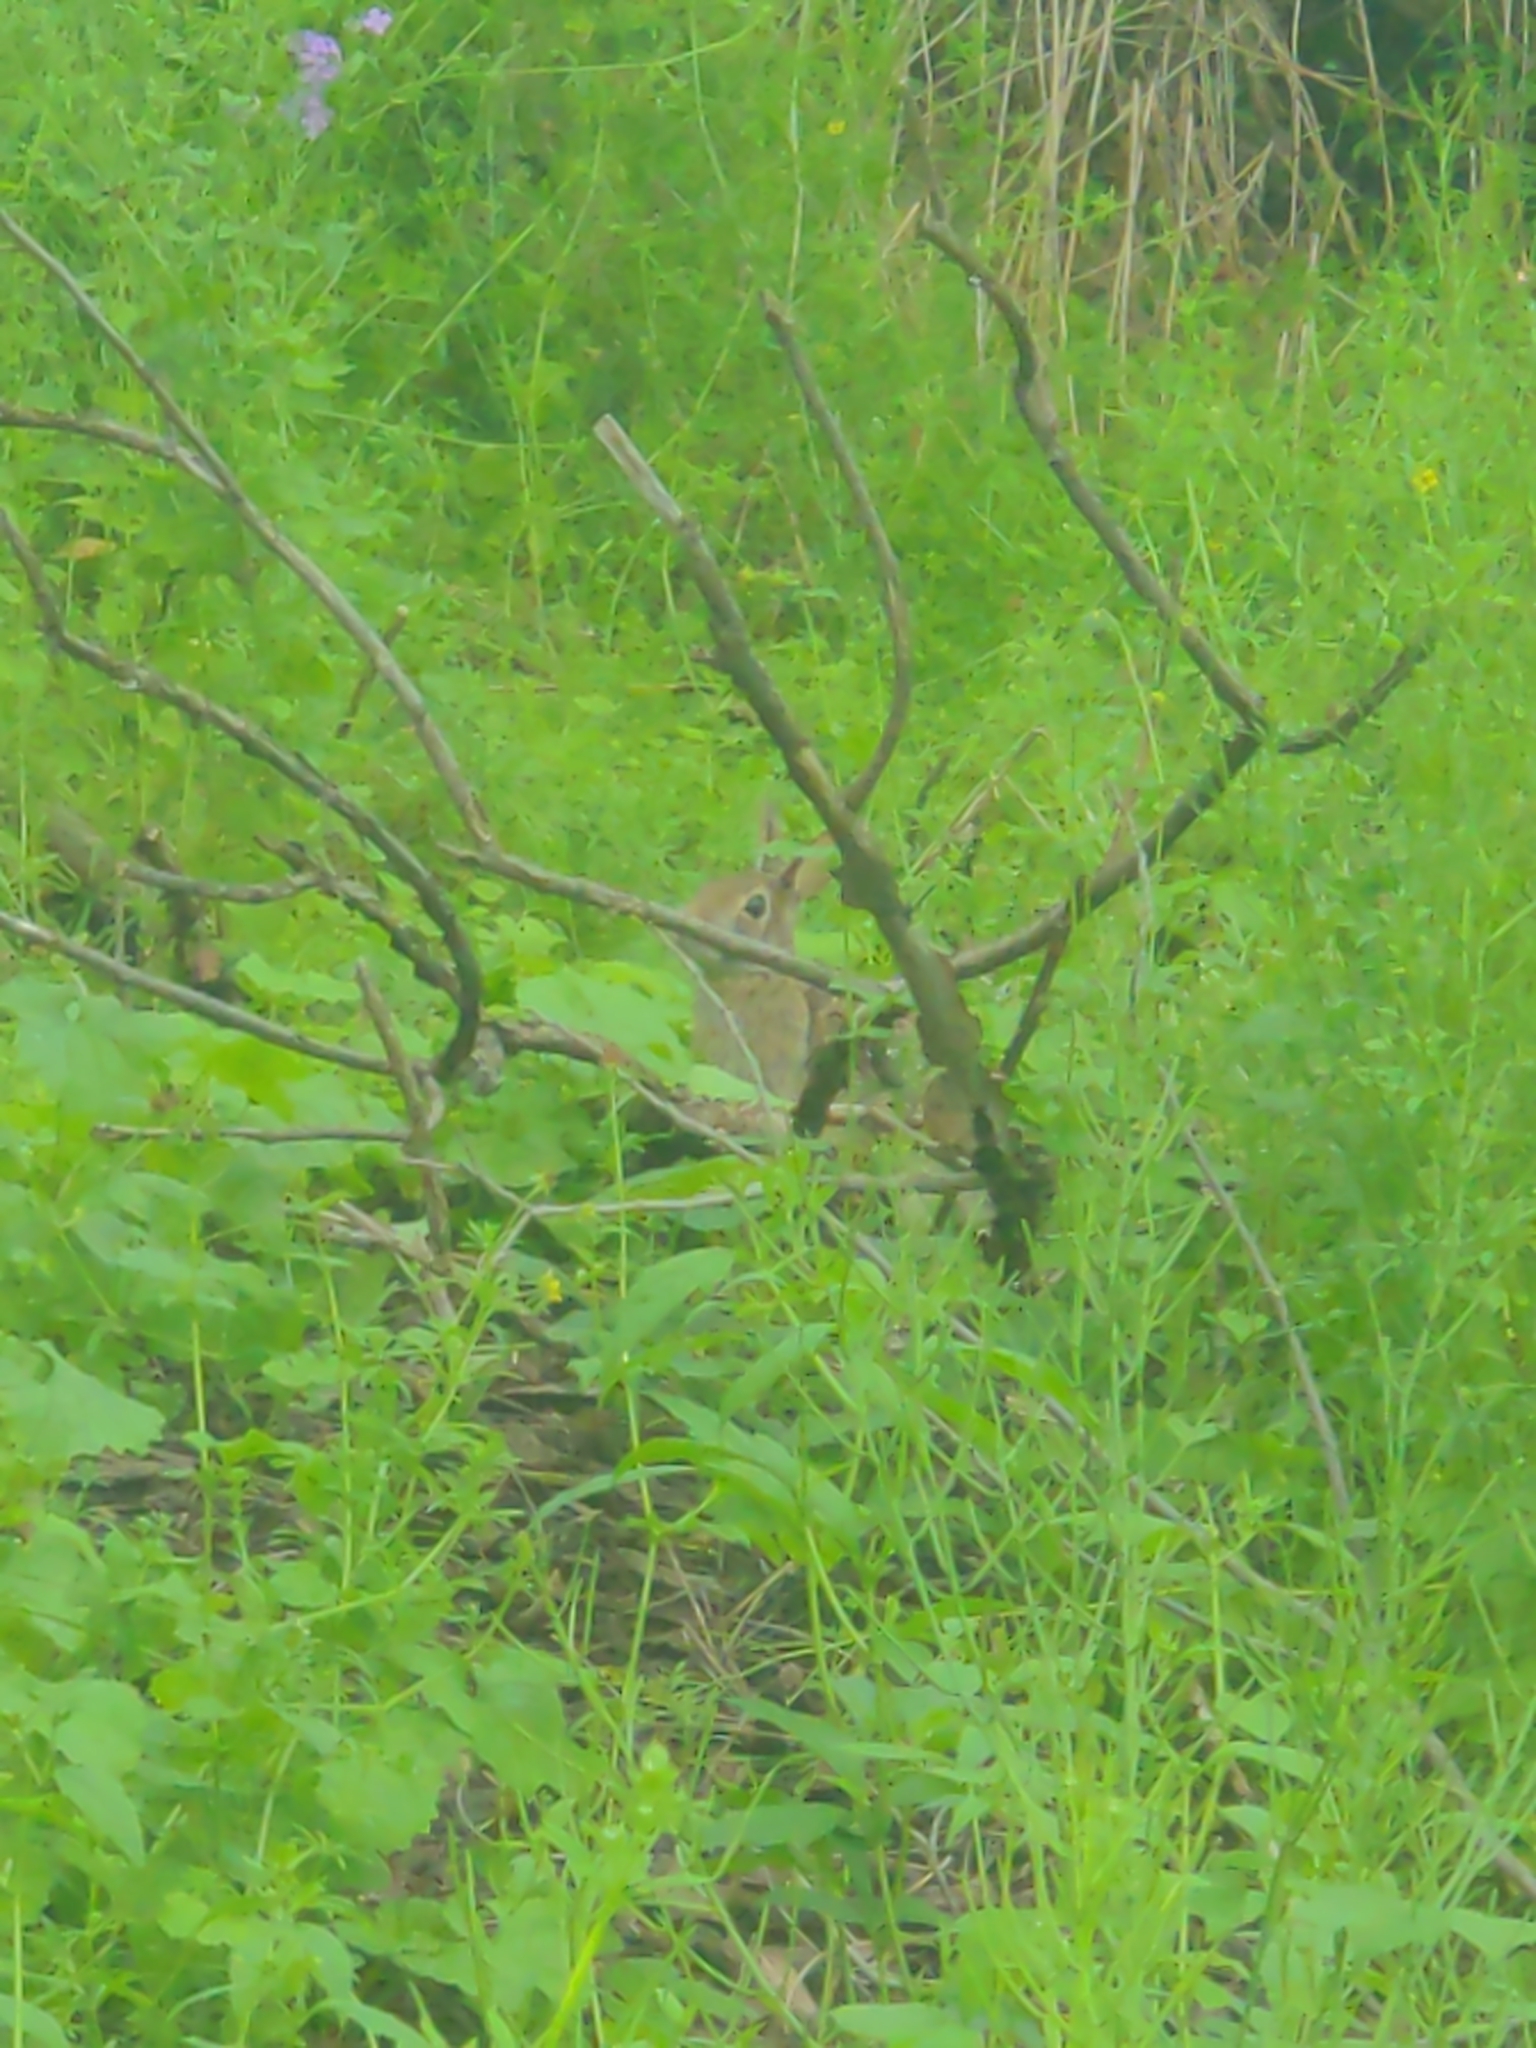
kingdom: Animalia
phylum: Chordata
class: Mammalia
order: Lagomorpha
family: Leporidae
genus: Sylvilagus
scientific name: Sylvilagus floridanus
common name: Eastern cottontail
